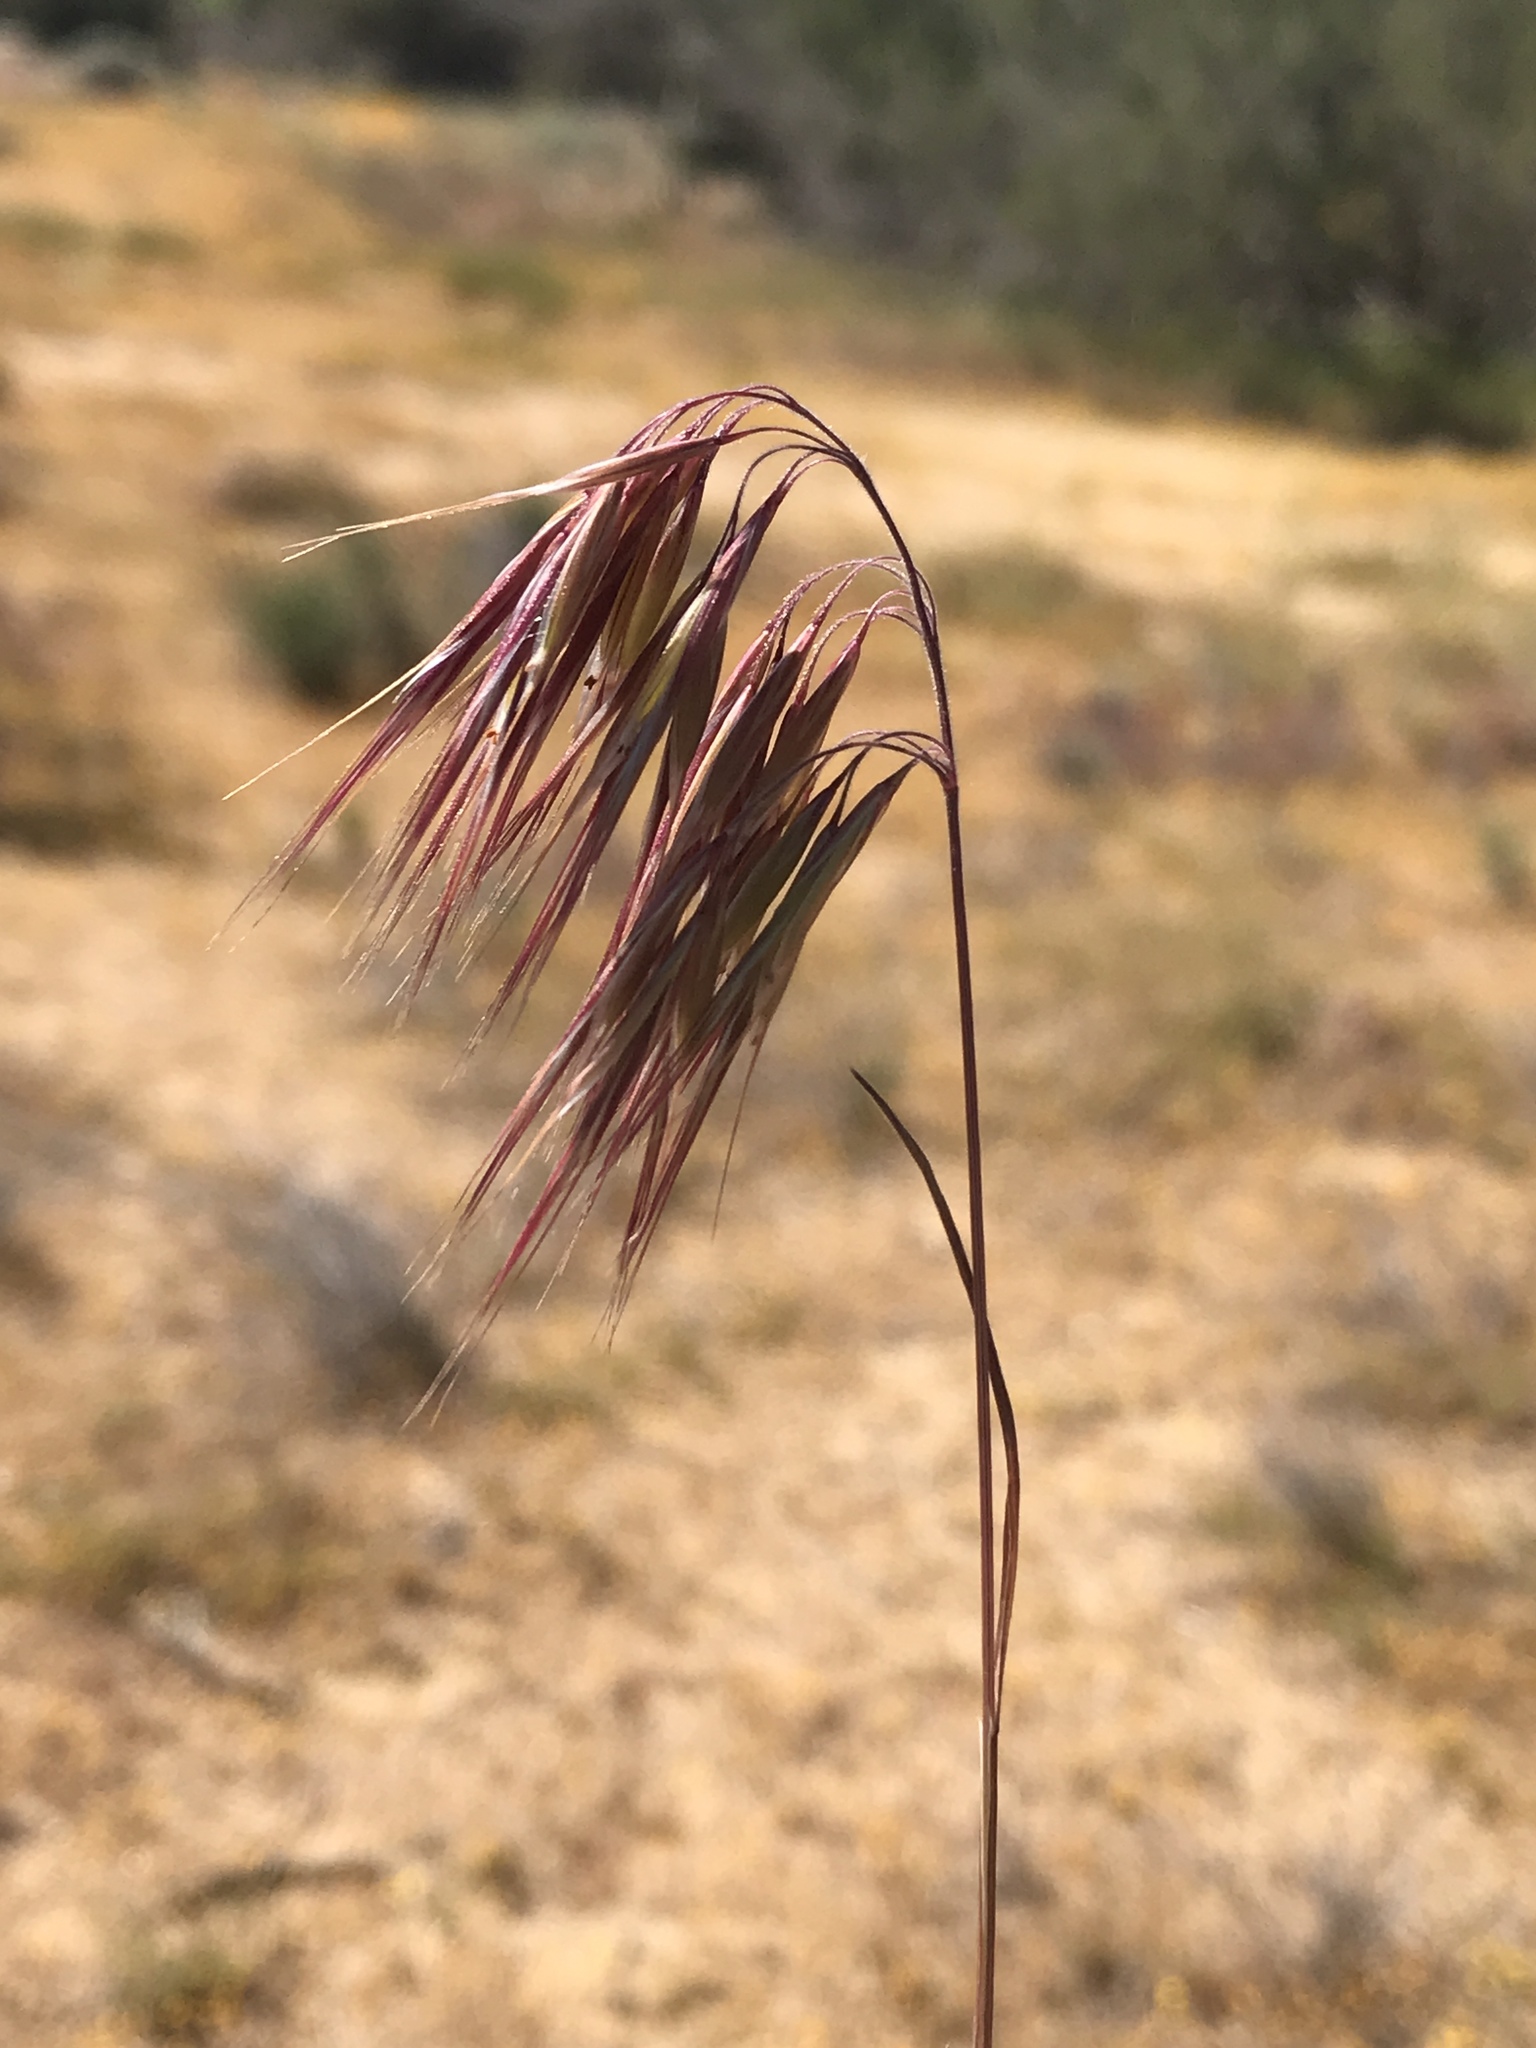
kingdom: Plantae
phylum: Tracheophyta
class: Liliopsida
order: Poales
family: Poaceae
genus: Bromus
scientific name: Bromus tectorum
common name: Cheatgrass
